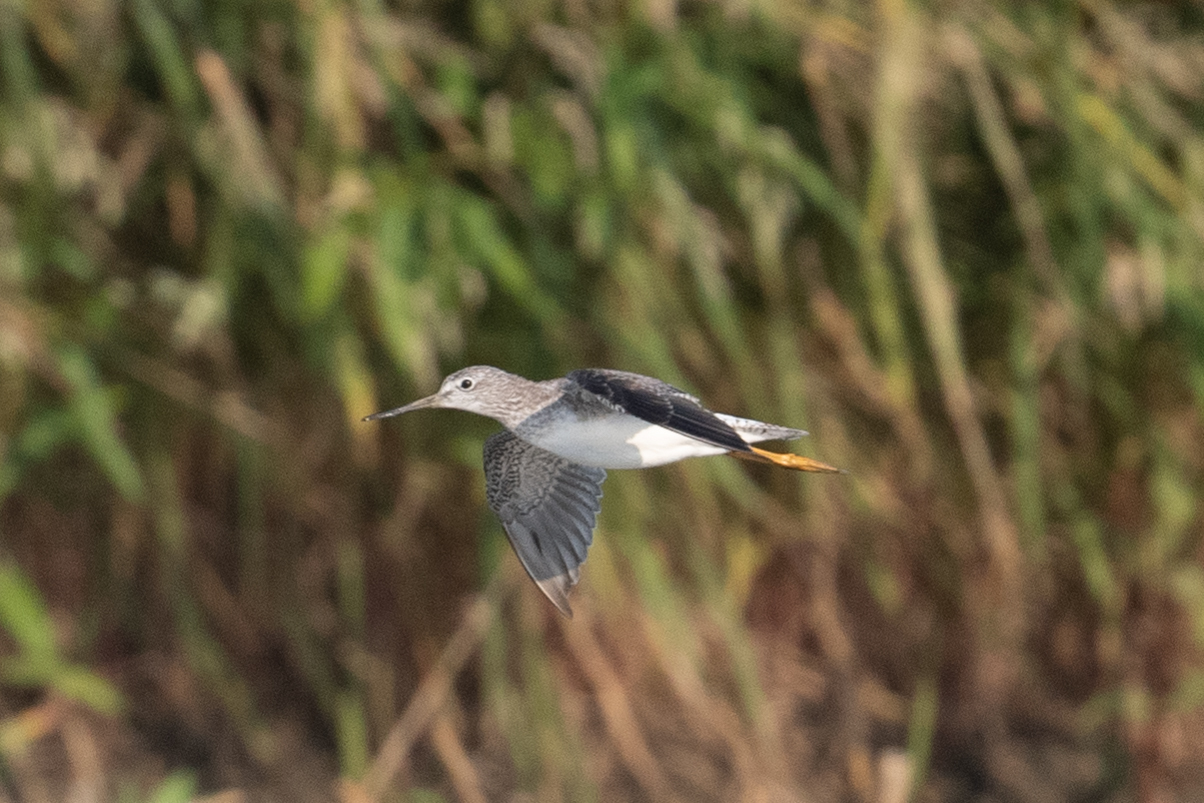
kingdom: Animalia
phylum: Chordata
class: Aves
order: Charadriiformes
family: Scolopacidae
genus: Tringa
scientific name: Tringa melanoleuca
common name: Greater yellowlegs
